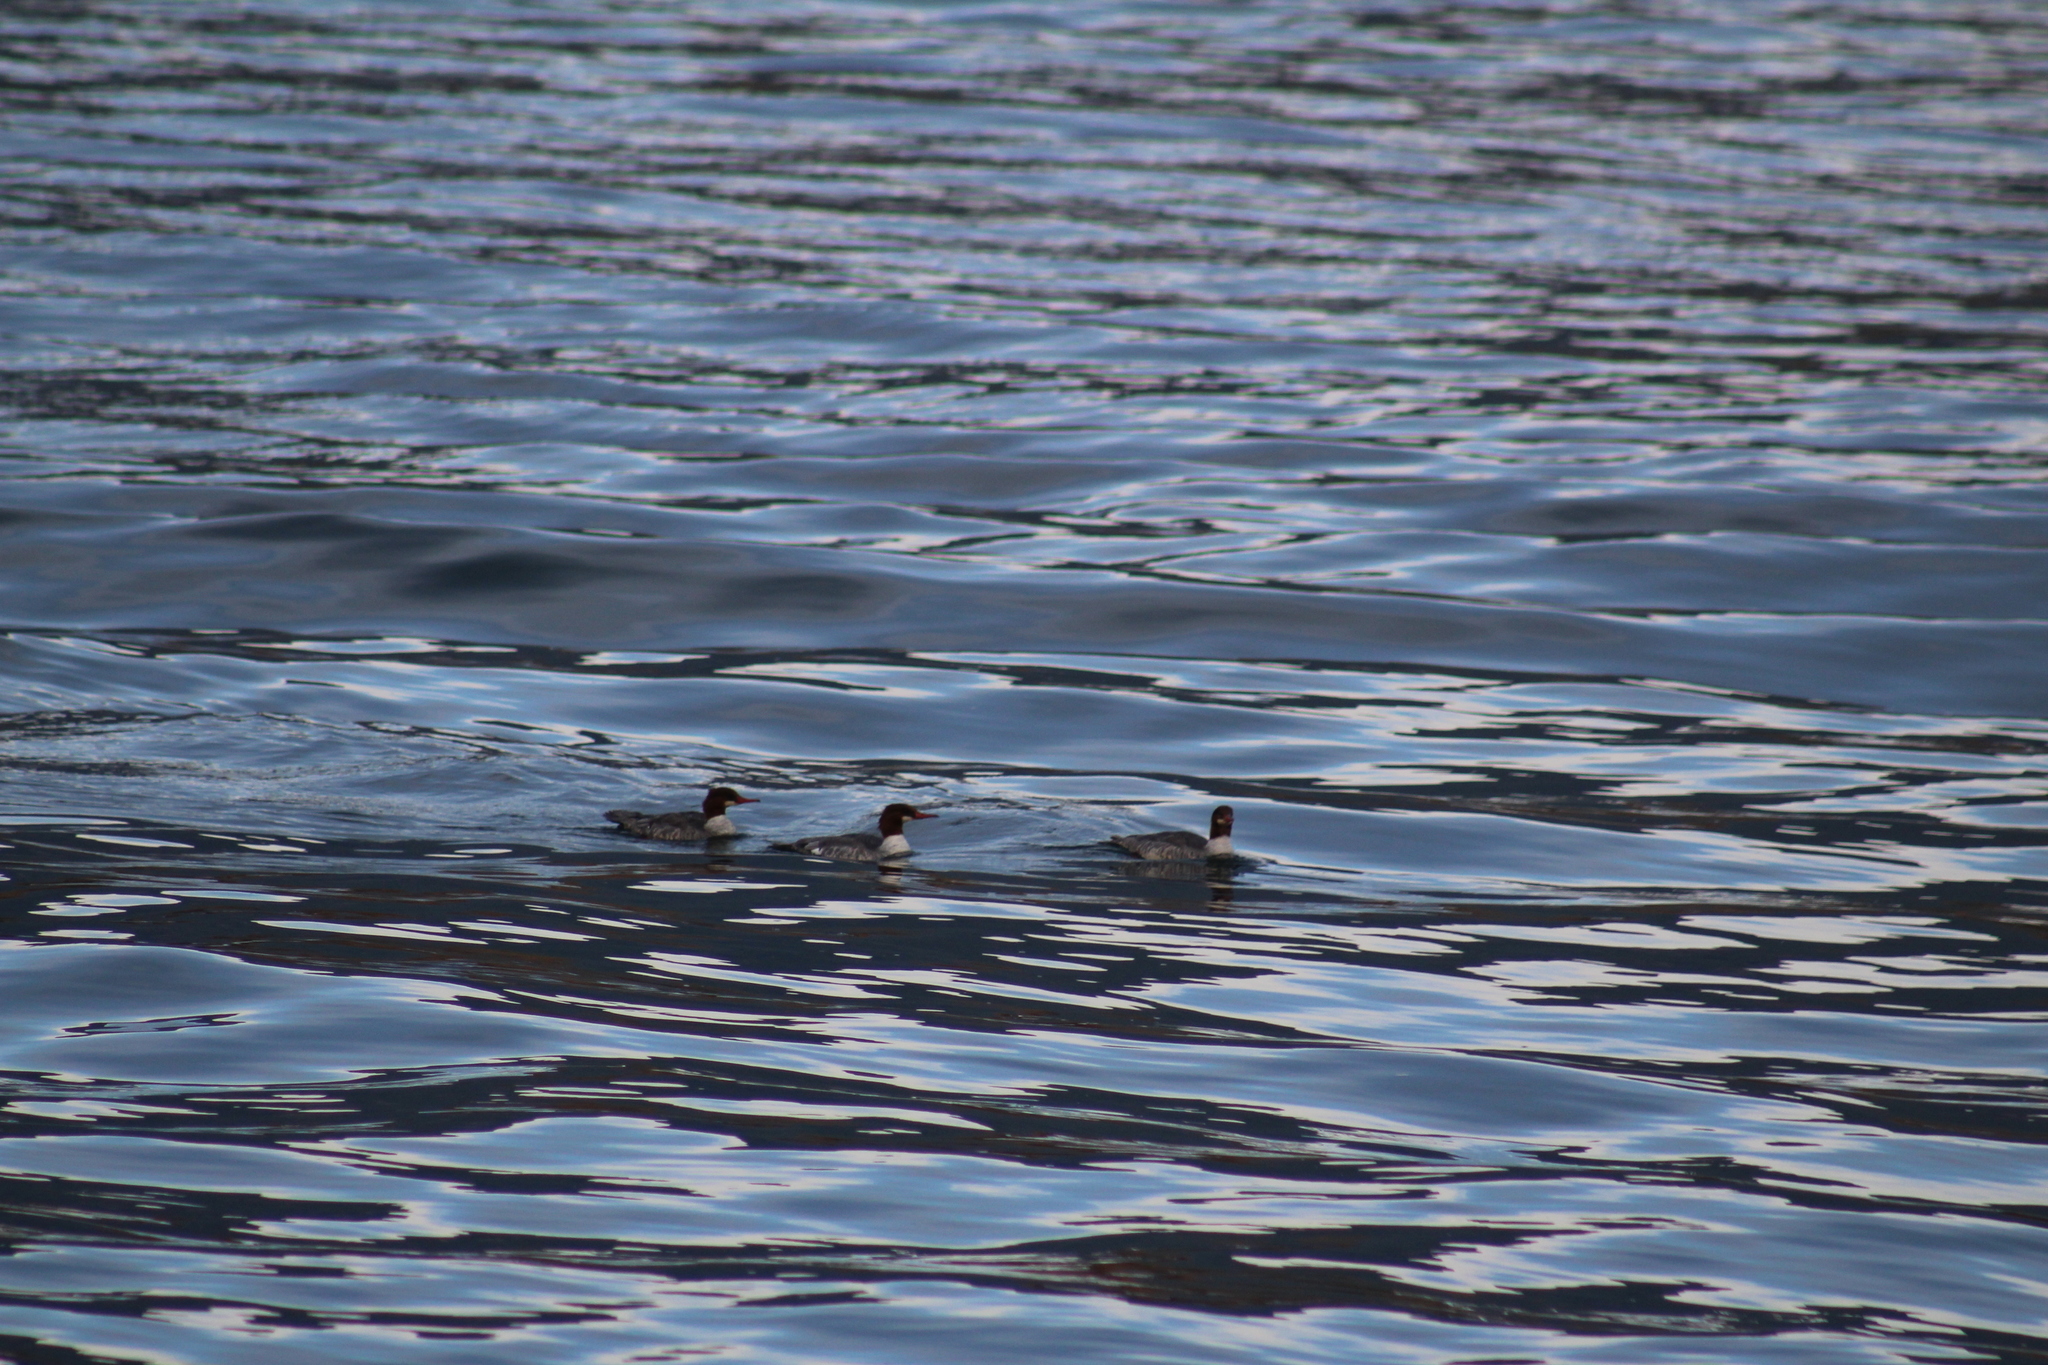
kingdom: Animalia
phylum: Chordata
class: Aves
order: Anseriformes
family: Anatidae
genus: Mergus
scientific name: Mergus merganser
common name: Common merganser
